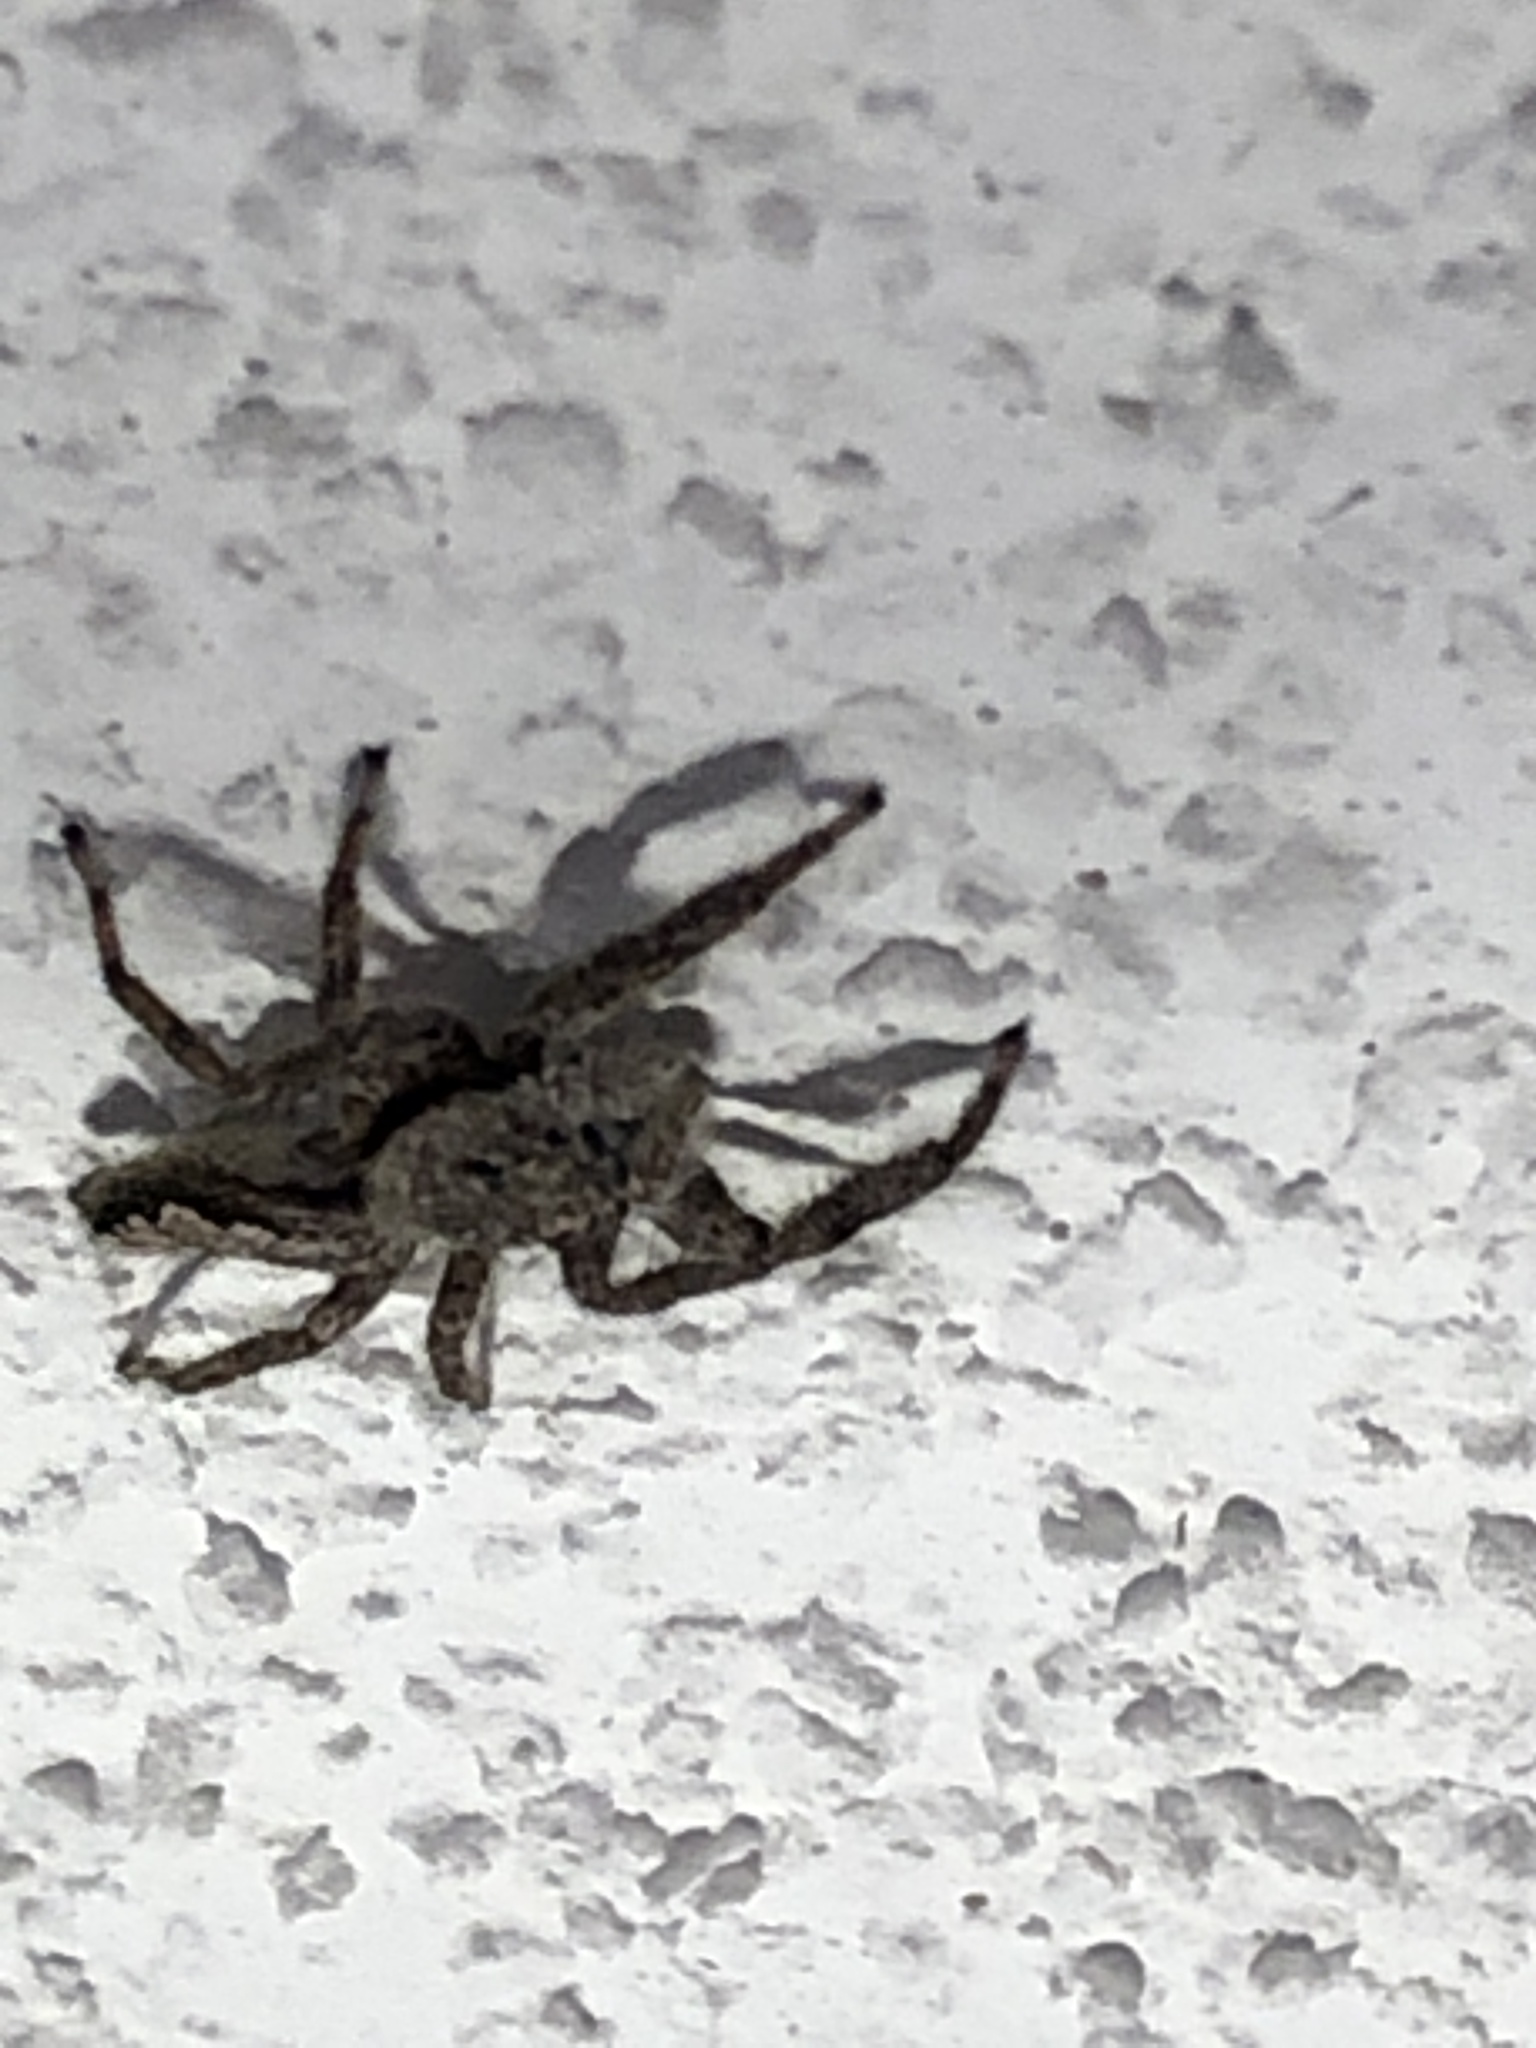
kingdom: Animalia
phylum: Arthropoda
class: Arachnida
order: Araneae
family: Salticidae
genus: Platycryptus
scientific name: Platycryptus undatus
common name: Tan jumping spider
